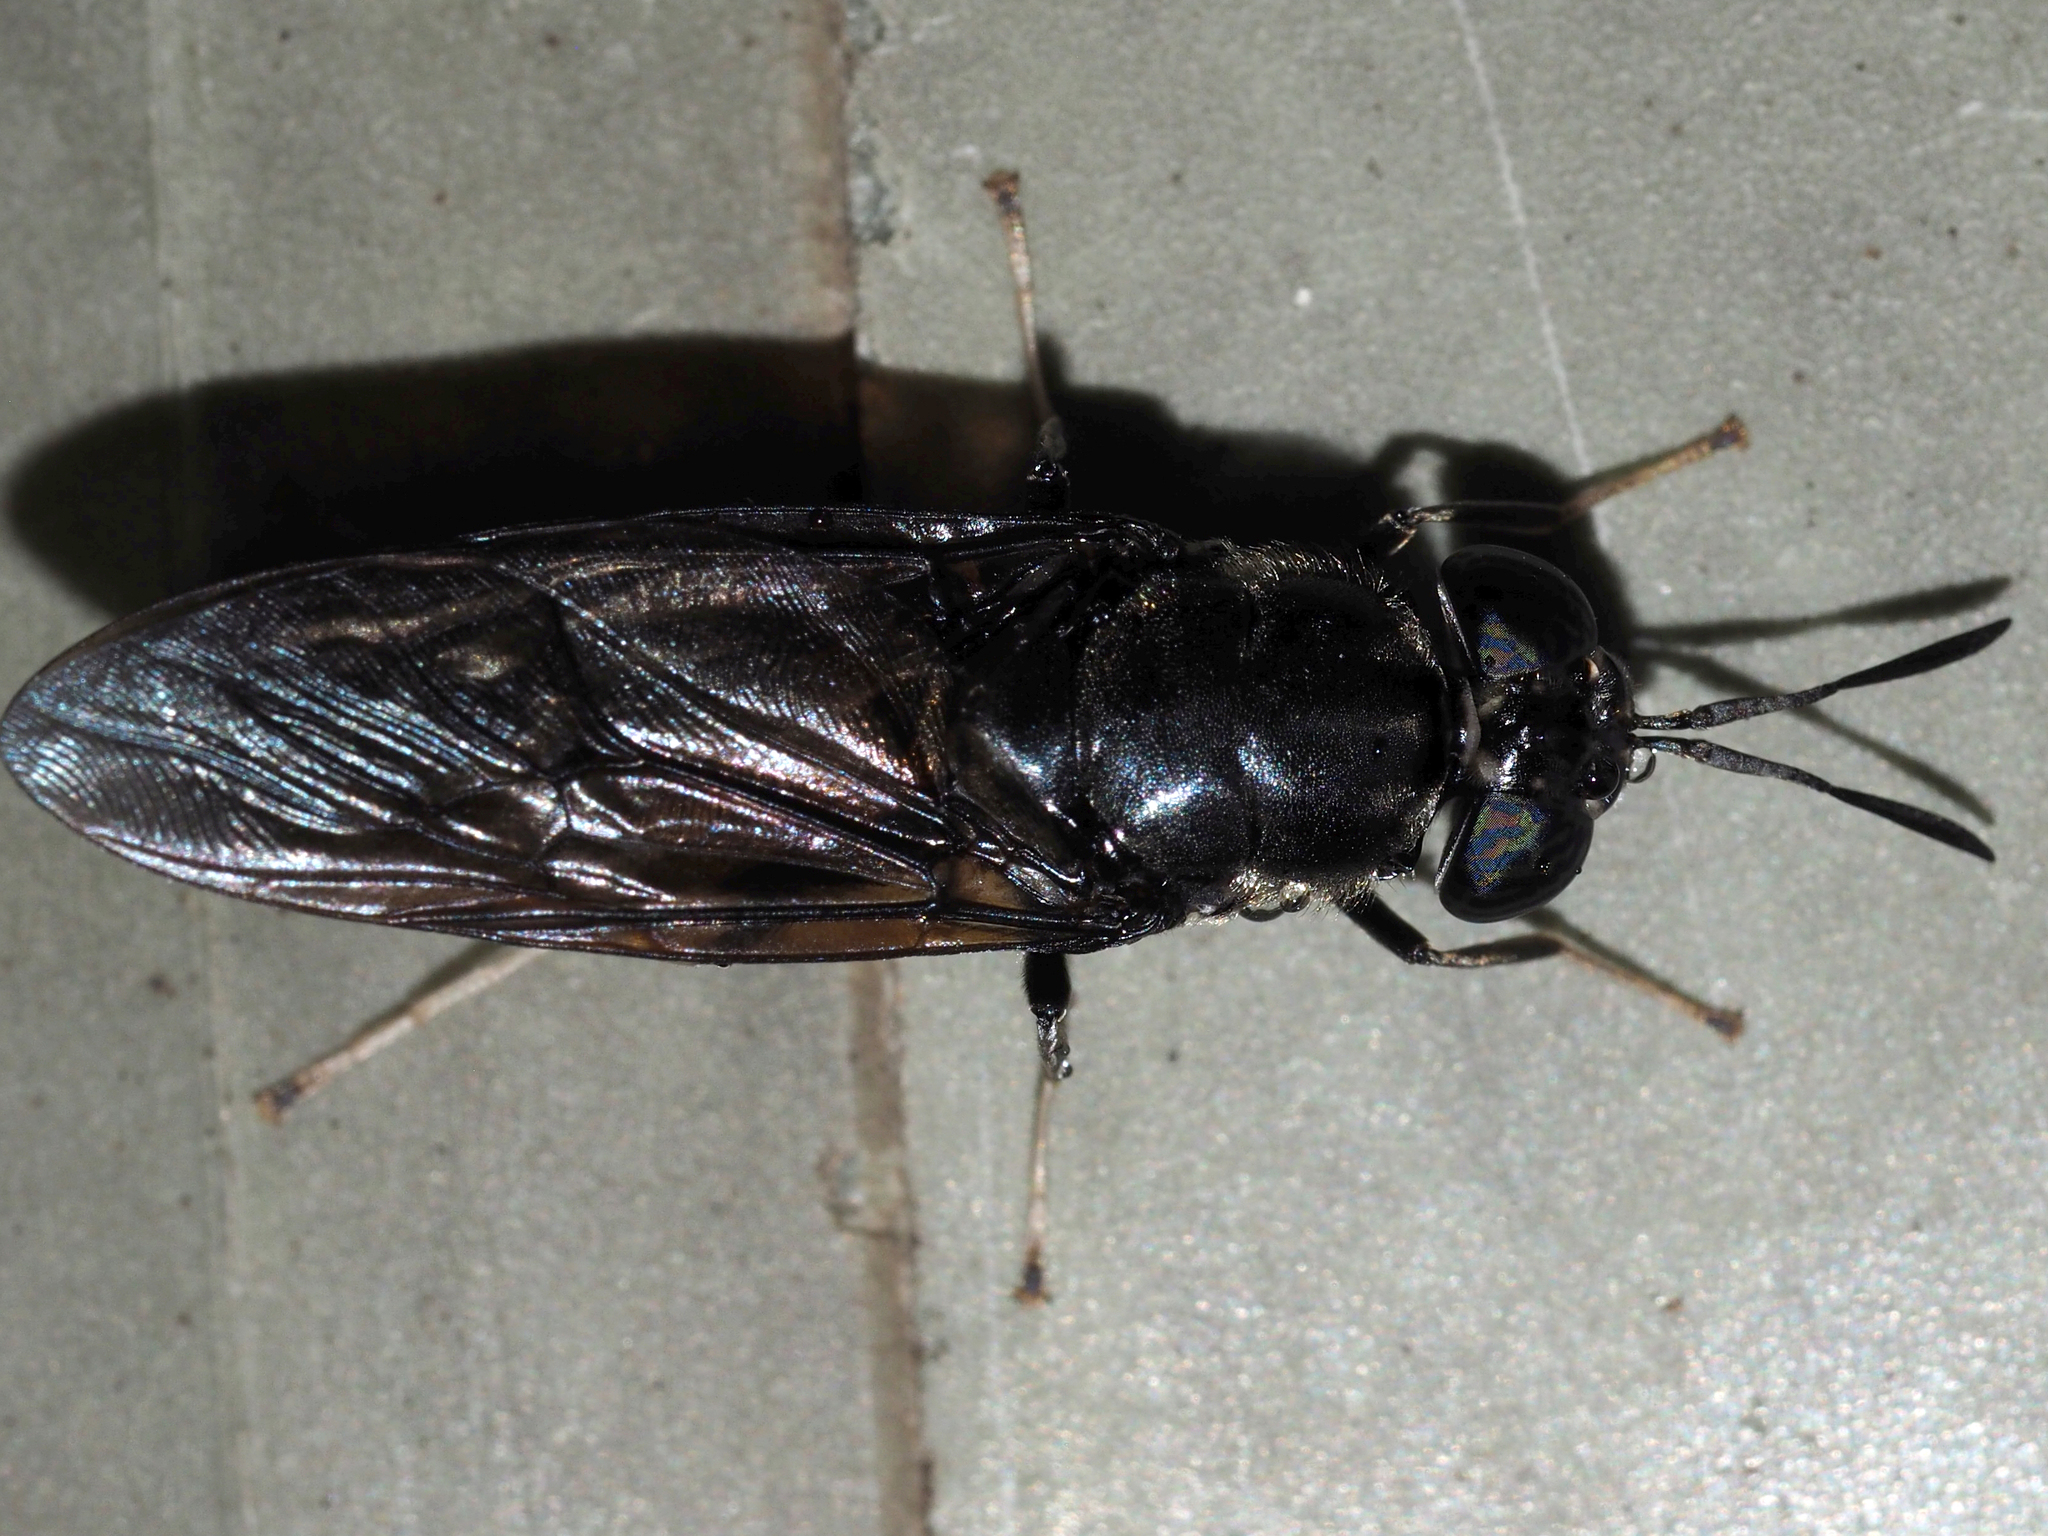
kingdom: Animalia
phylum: Arthropoda
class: Insecta
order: Diptera
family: Stratiomyidae
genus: Hermetia
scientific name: Hermetia illucens
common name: Black soldier fly
